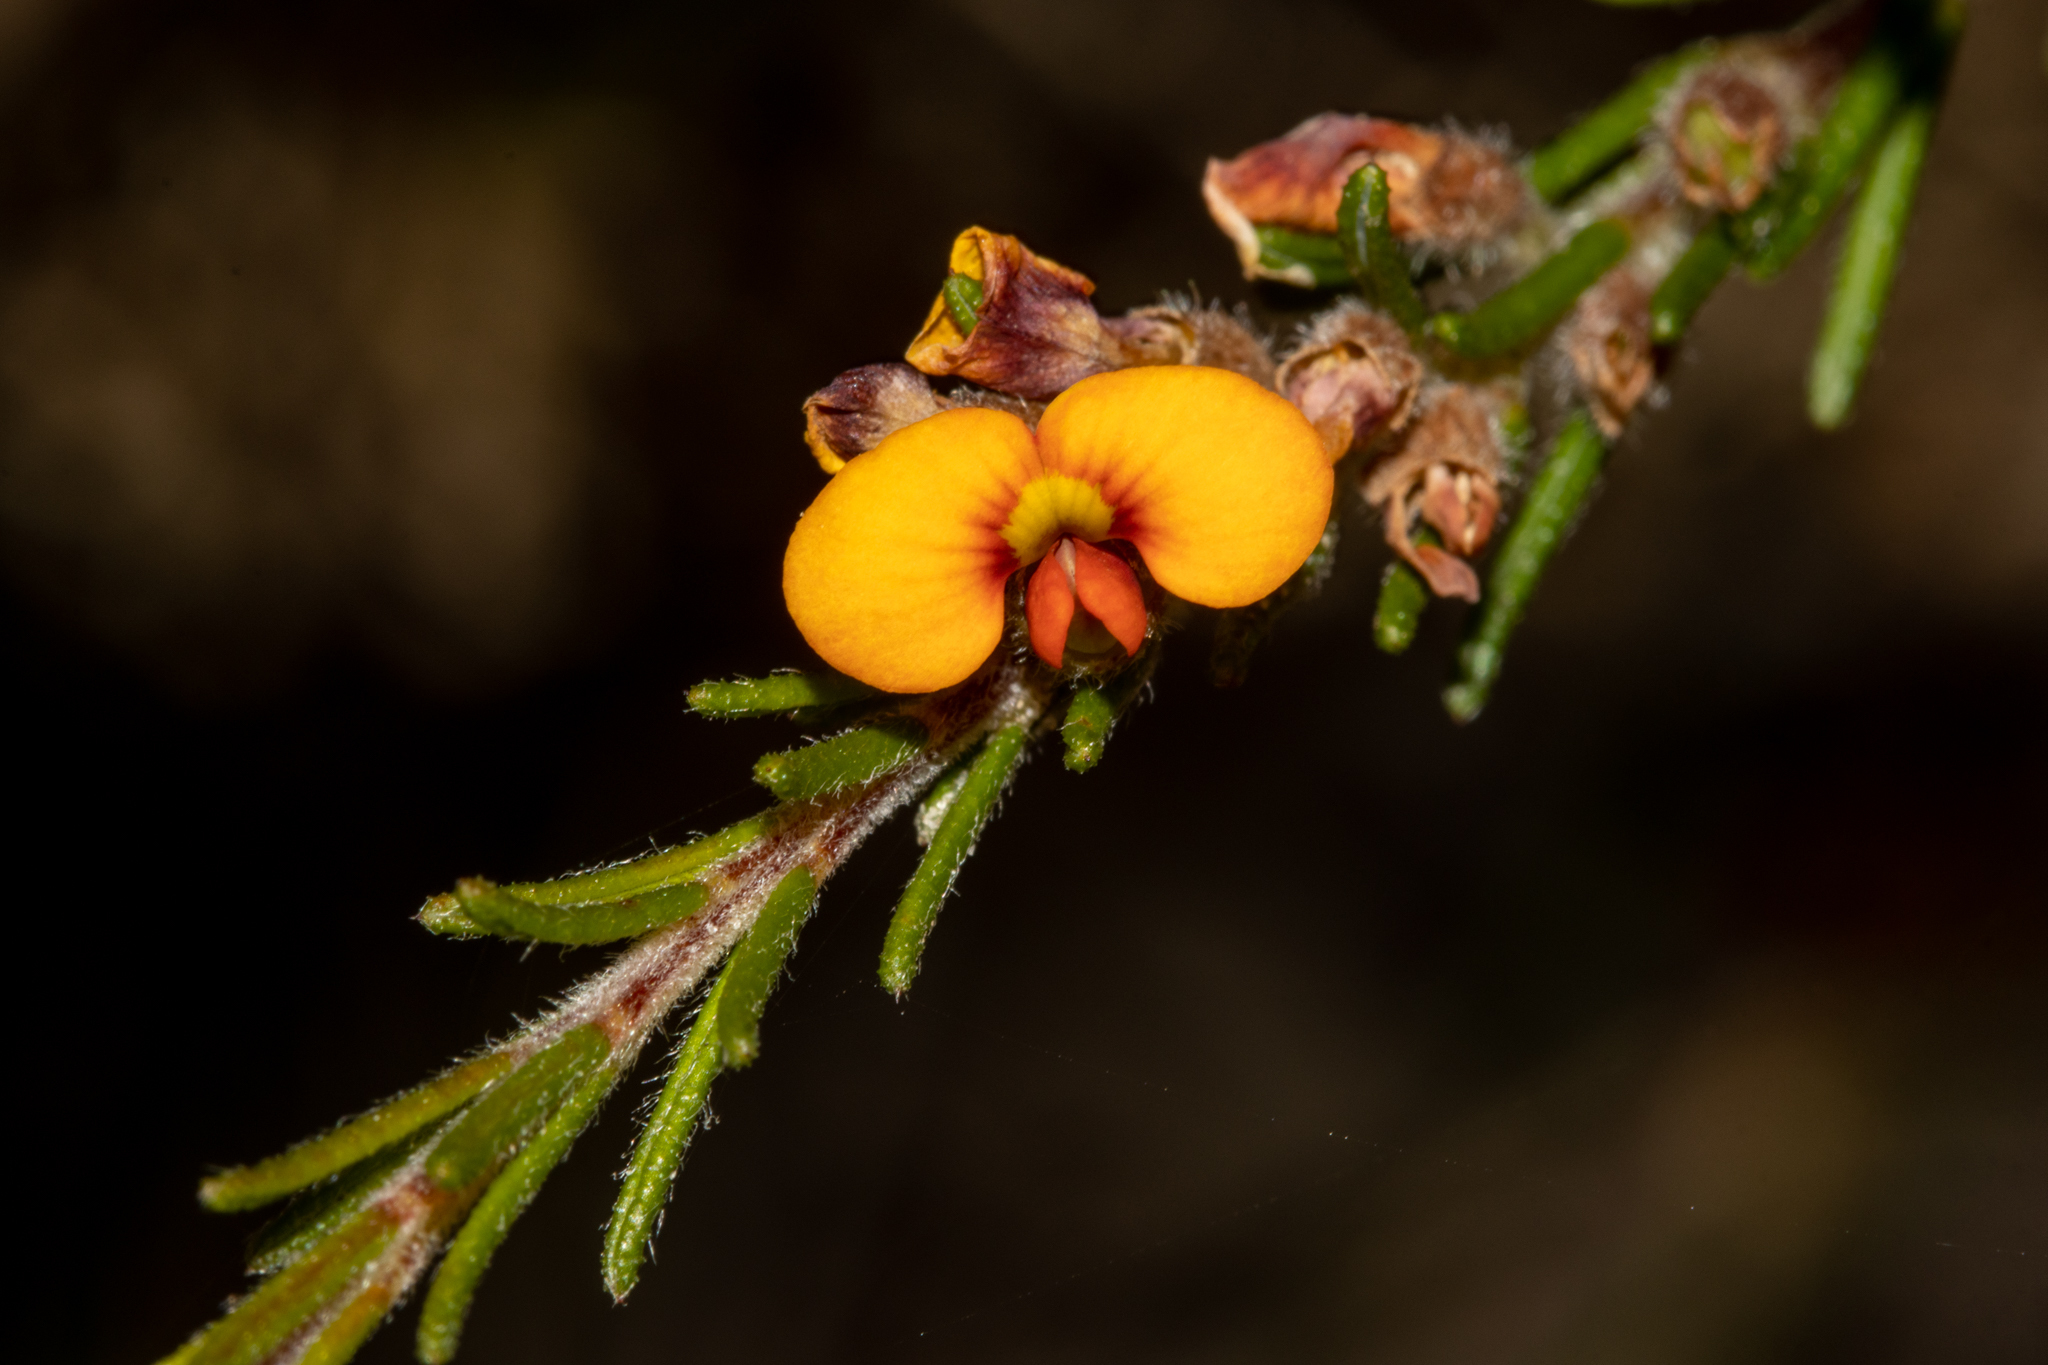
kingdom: Plantae
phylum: Tracheophyta
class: Magnoliopsida
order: Fabales
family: Fabaceae
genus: Dillwynia
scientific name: Dillwynia sericea
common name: Showy parrot-pea
